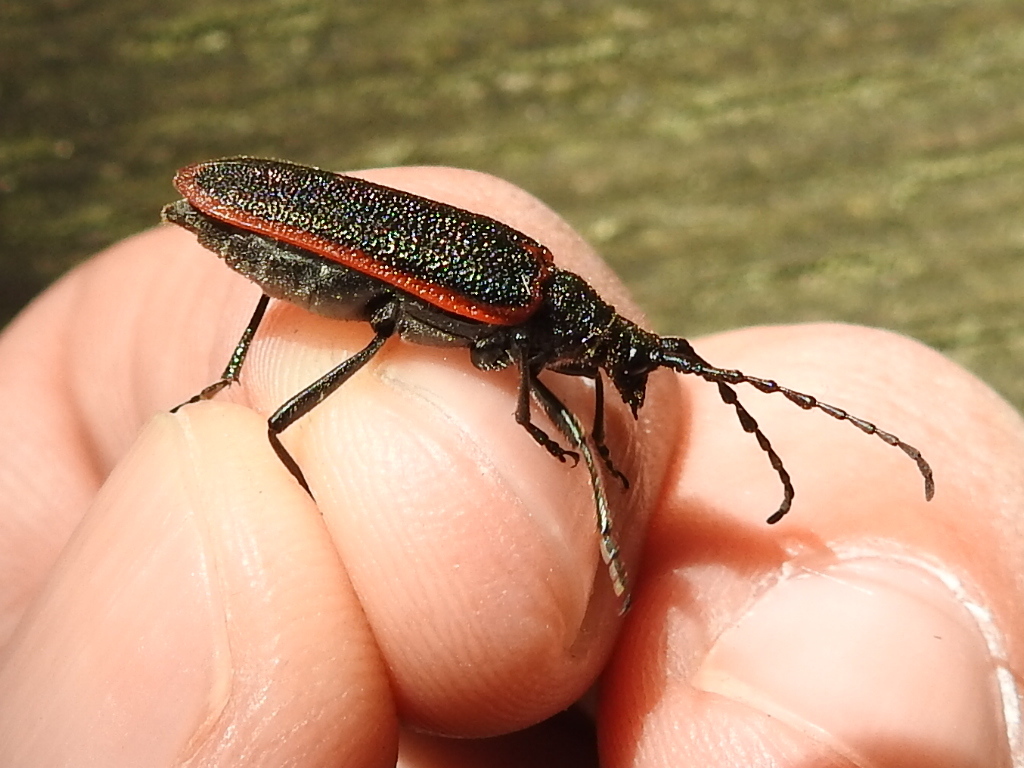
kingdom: Animalia
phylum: Arthropoda
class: Insecta
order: Coleoptera
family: Cerambycidae
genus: Desmocerus
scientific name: Desmocerus aureipennis
